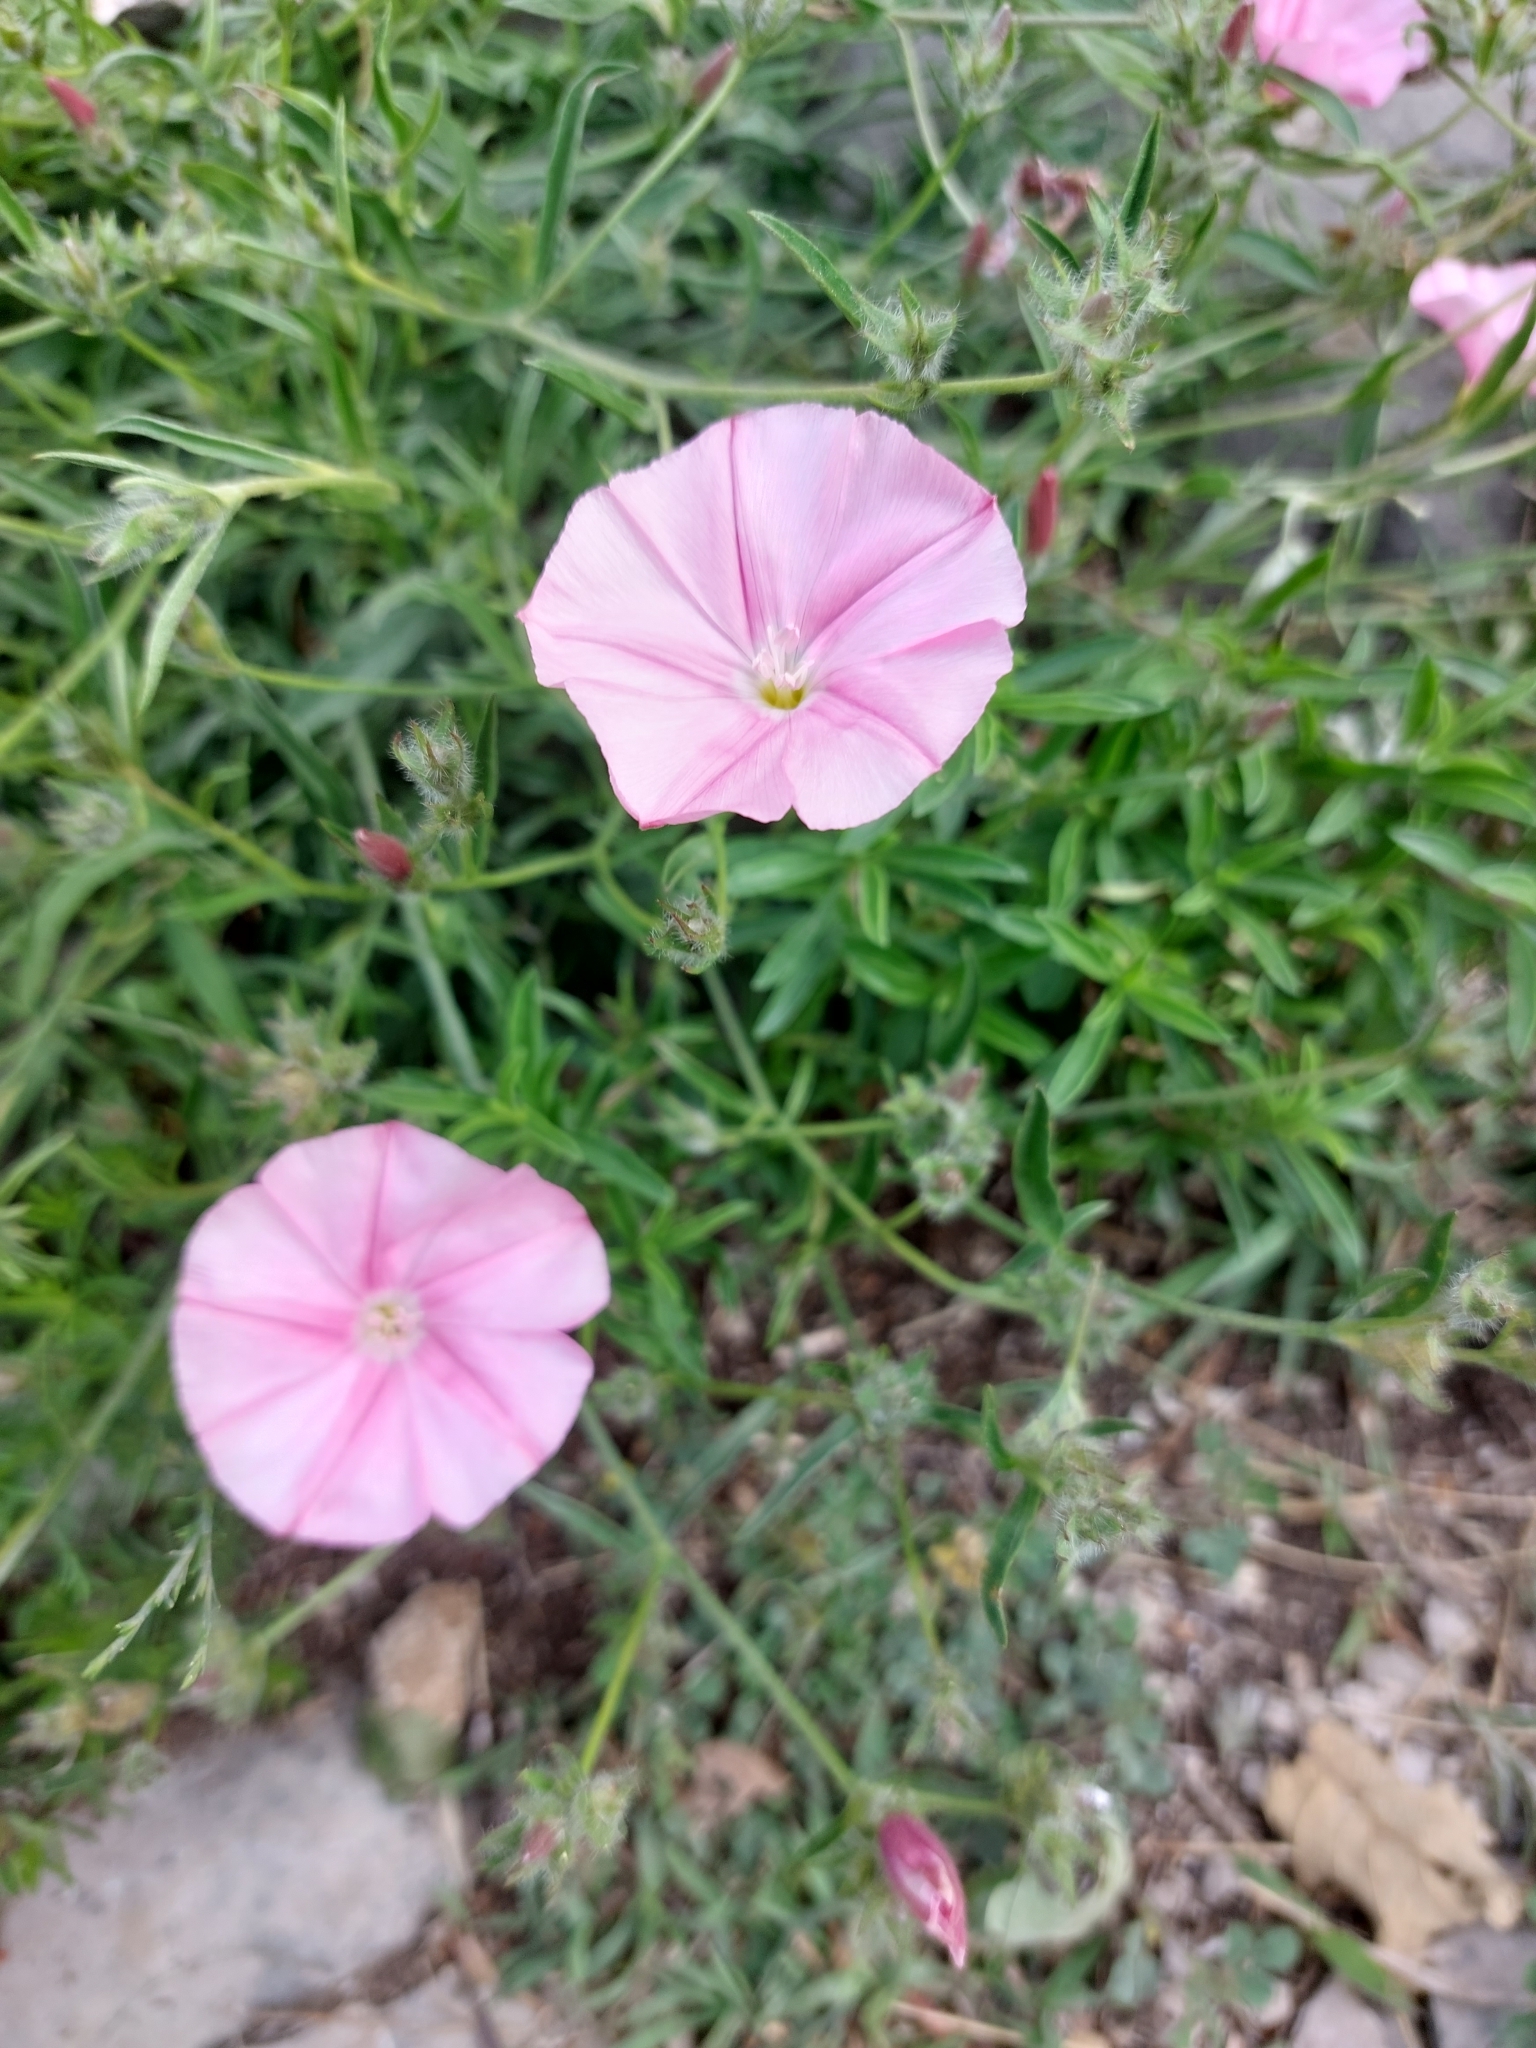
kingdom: Plantae
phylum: Tracheophyta
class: Magnoliopsida
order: Solanales
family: Convolvulaceae
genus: Convolvulus
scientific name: Convolvulus cantabrica
